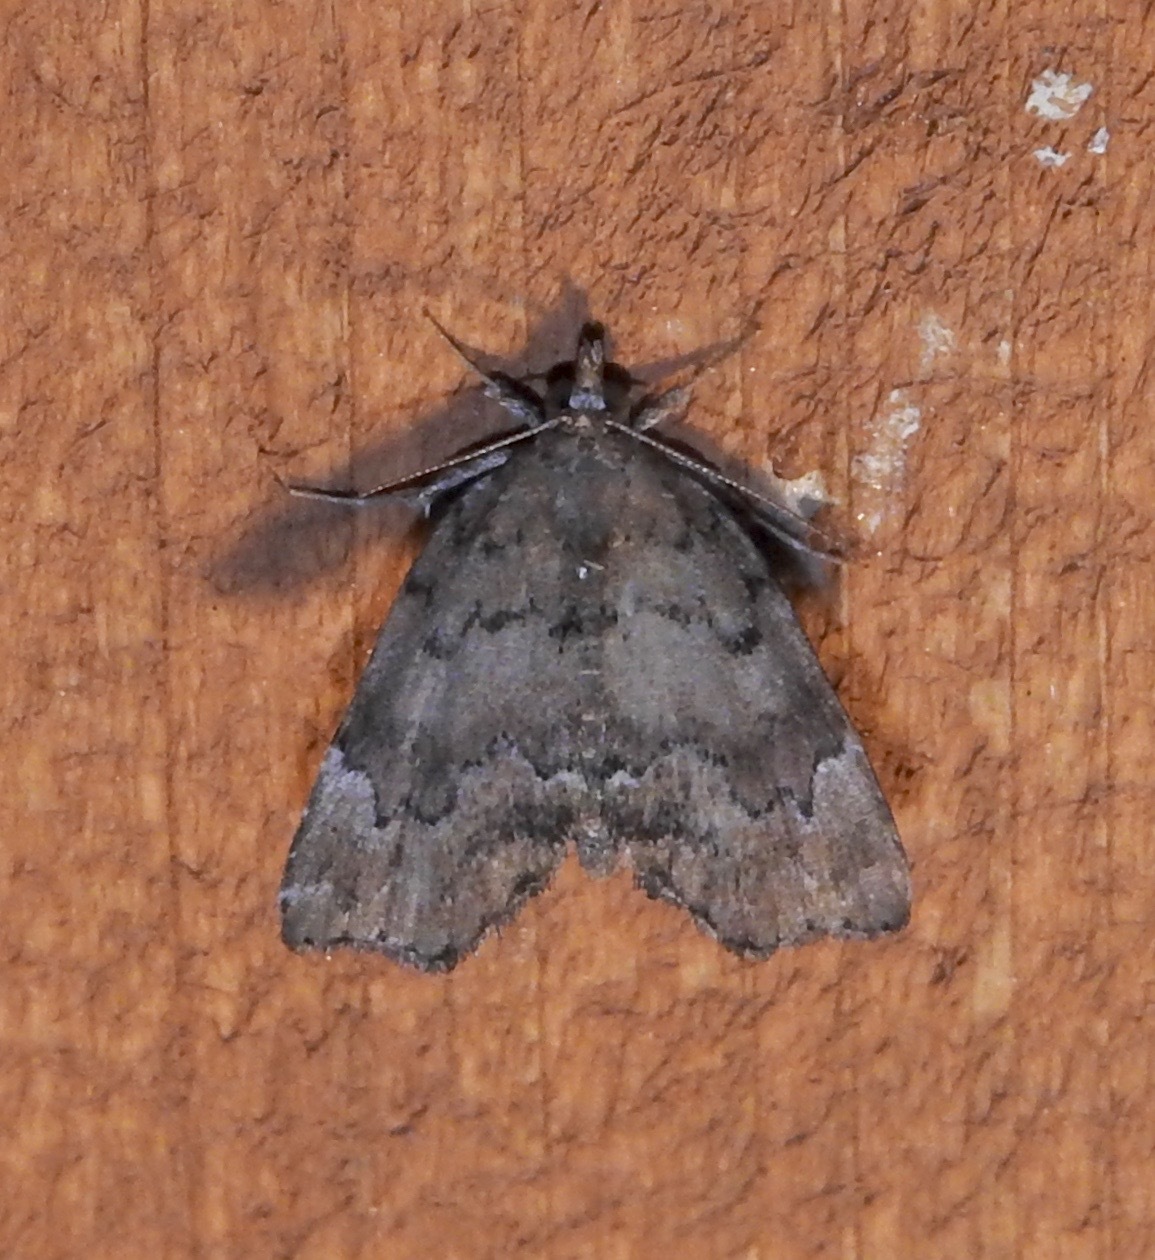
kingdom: Animalia
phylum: Arthropoda
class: Insecta
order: Lepidoptera
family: Erebidae
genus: Cutina
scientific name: Cutina aluticolor
